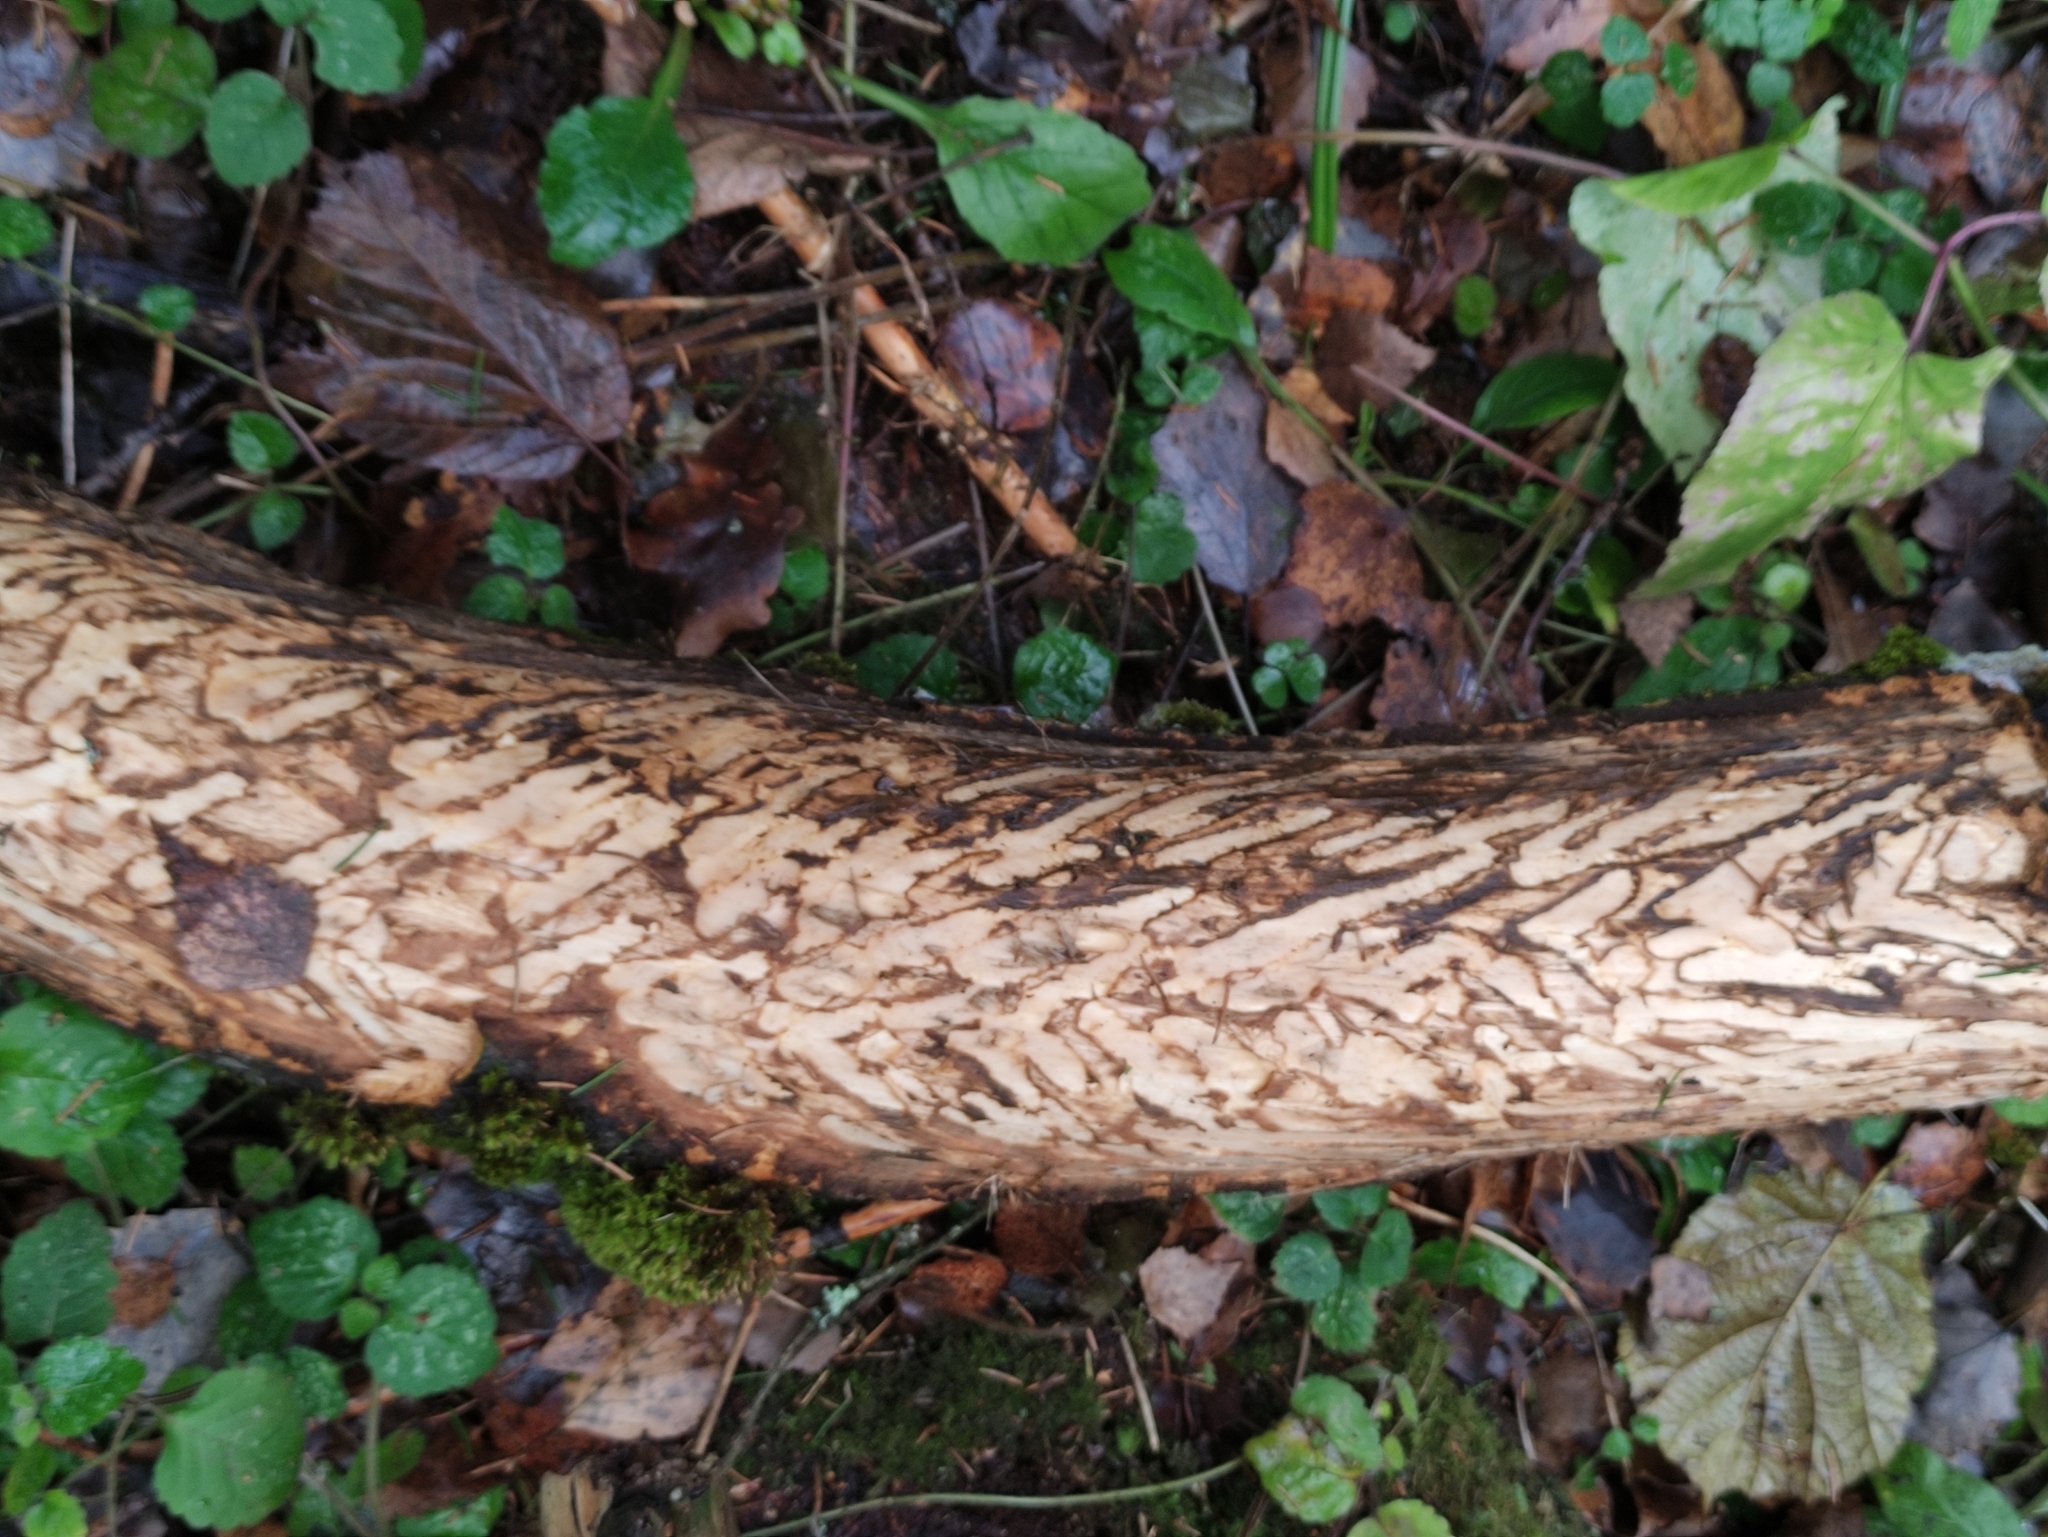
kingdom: Animalia
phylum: Chordata
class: Mammalia
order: Artiodactyla
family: Cervidae
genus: Alces
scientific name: Alces alces
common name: Moose
